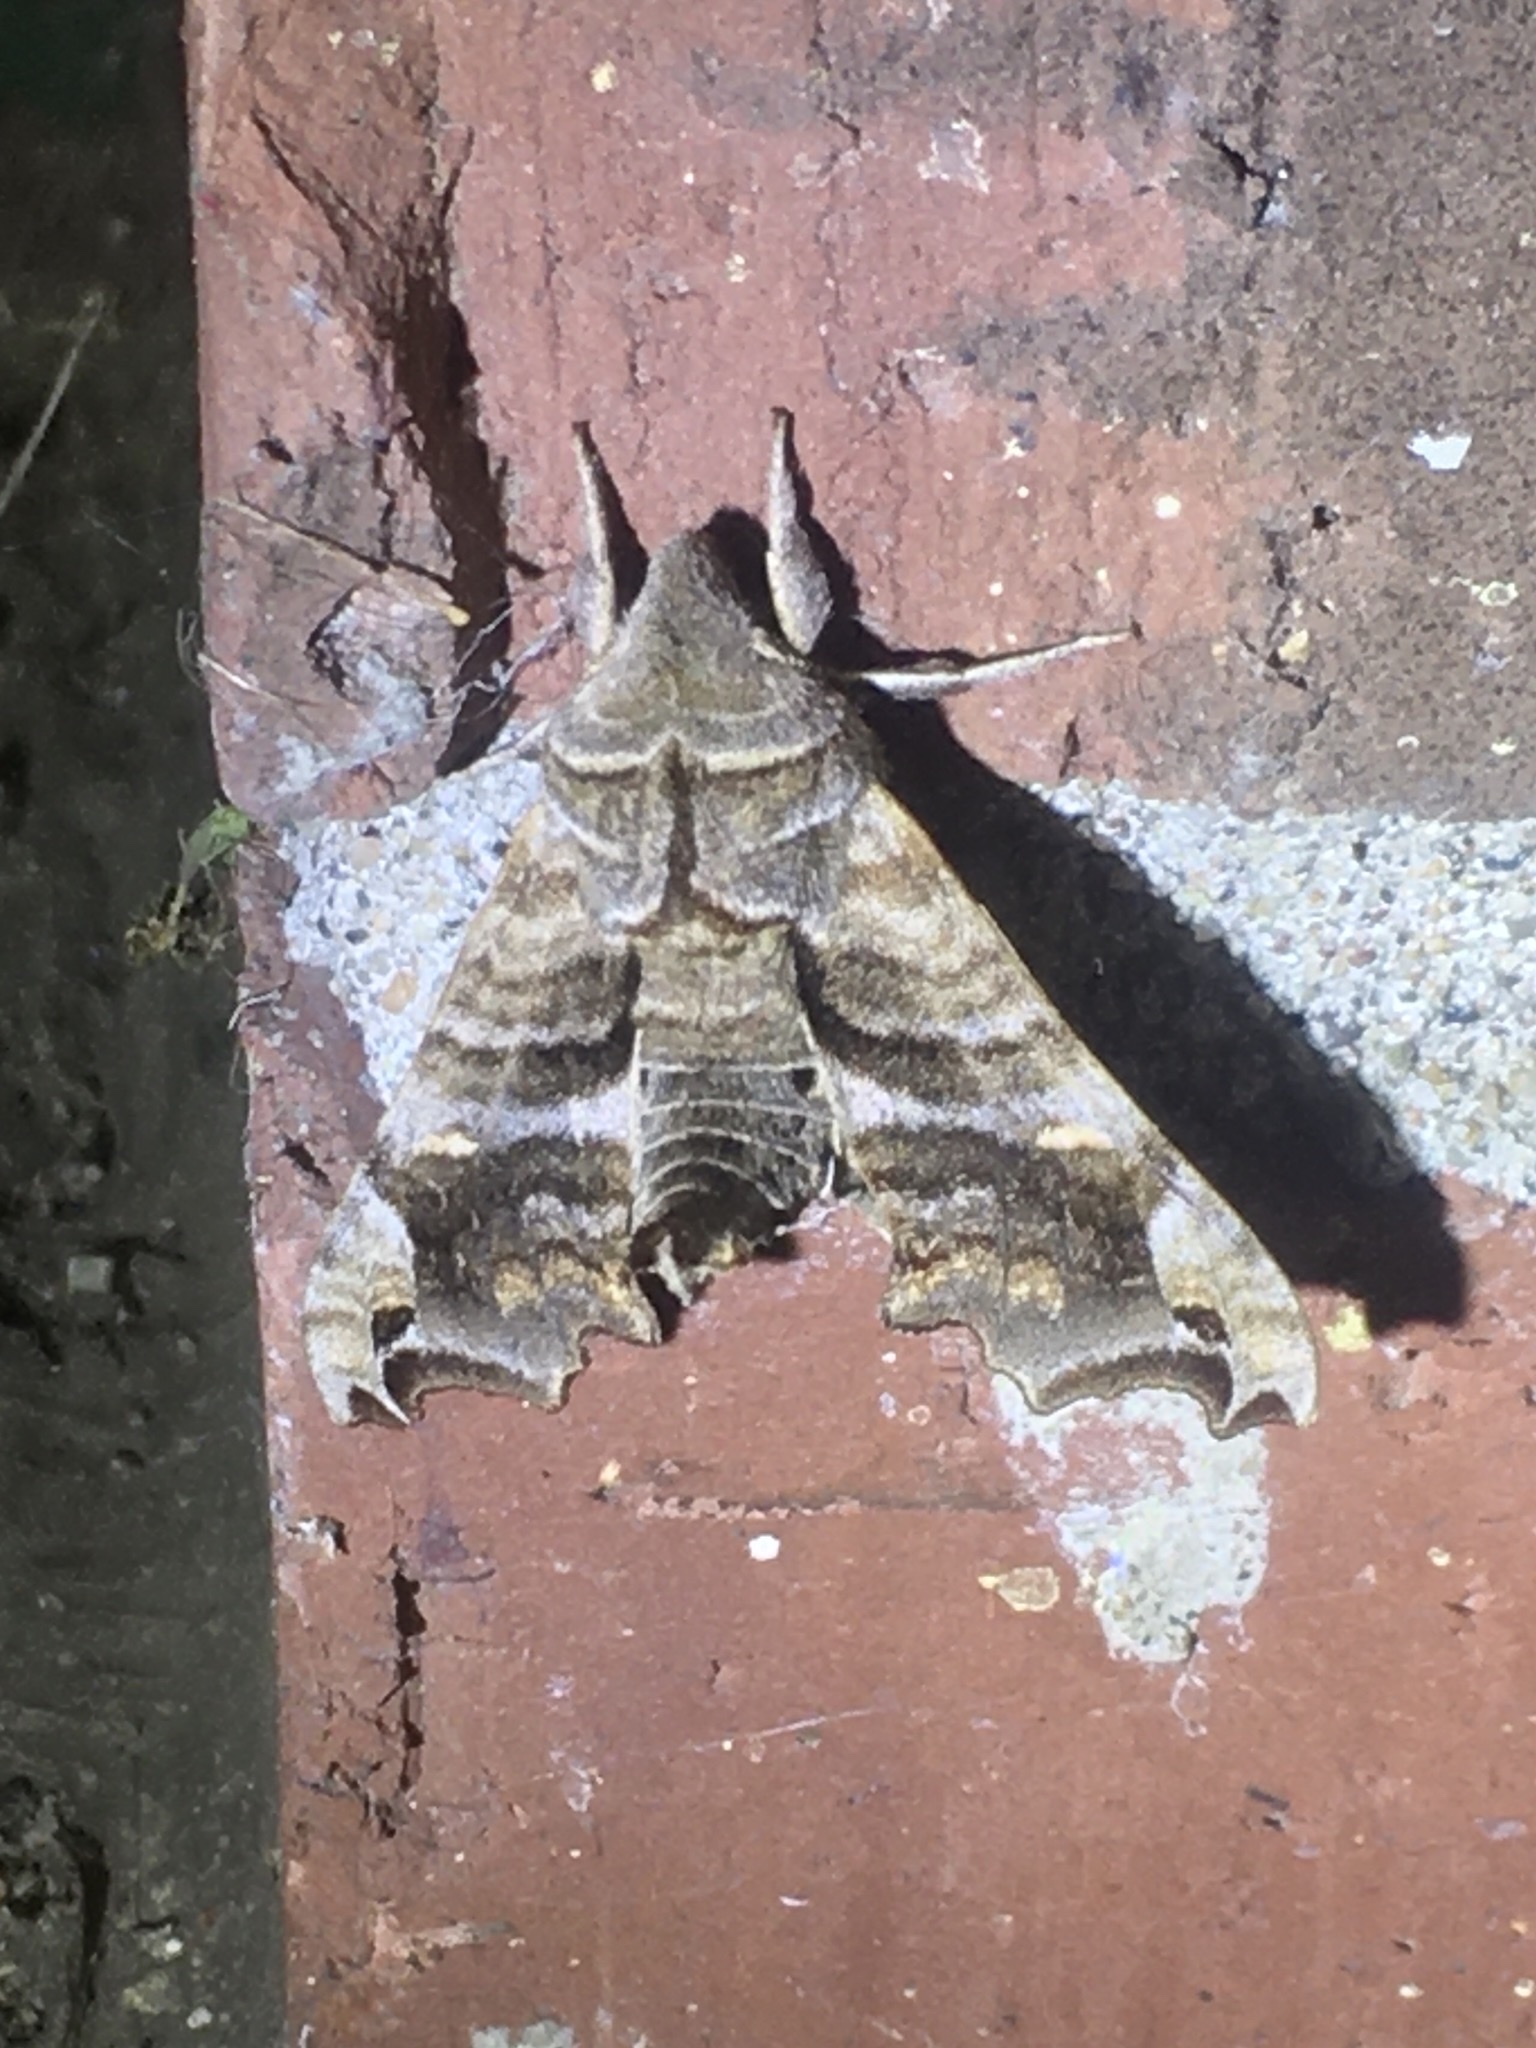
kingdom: Animalia
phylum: Arthropoda
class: Insecta
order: Lepidoptera
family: Sphingidae
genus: Deidamia
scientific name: Deidamia inscriptum
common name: Lettered sphinx
